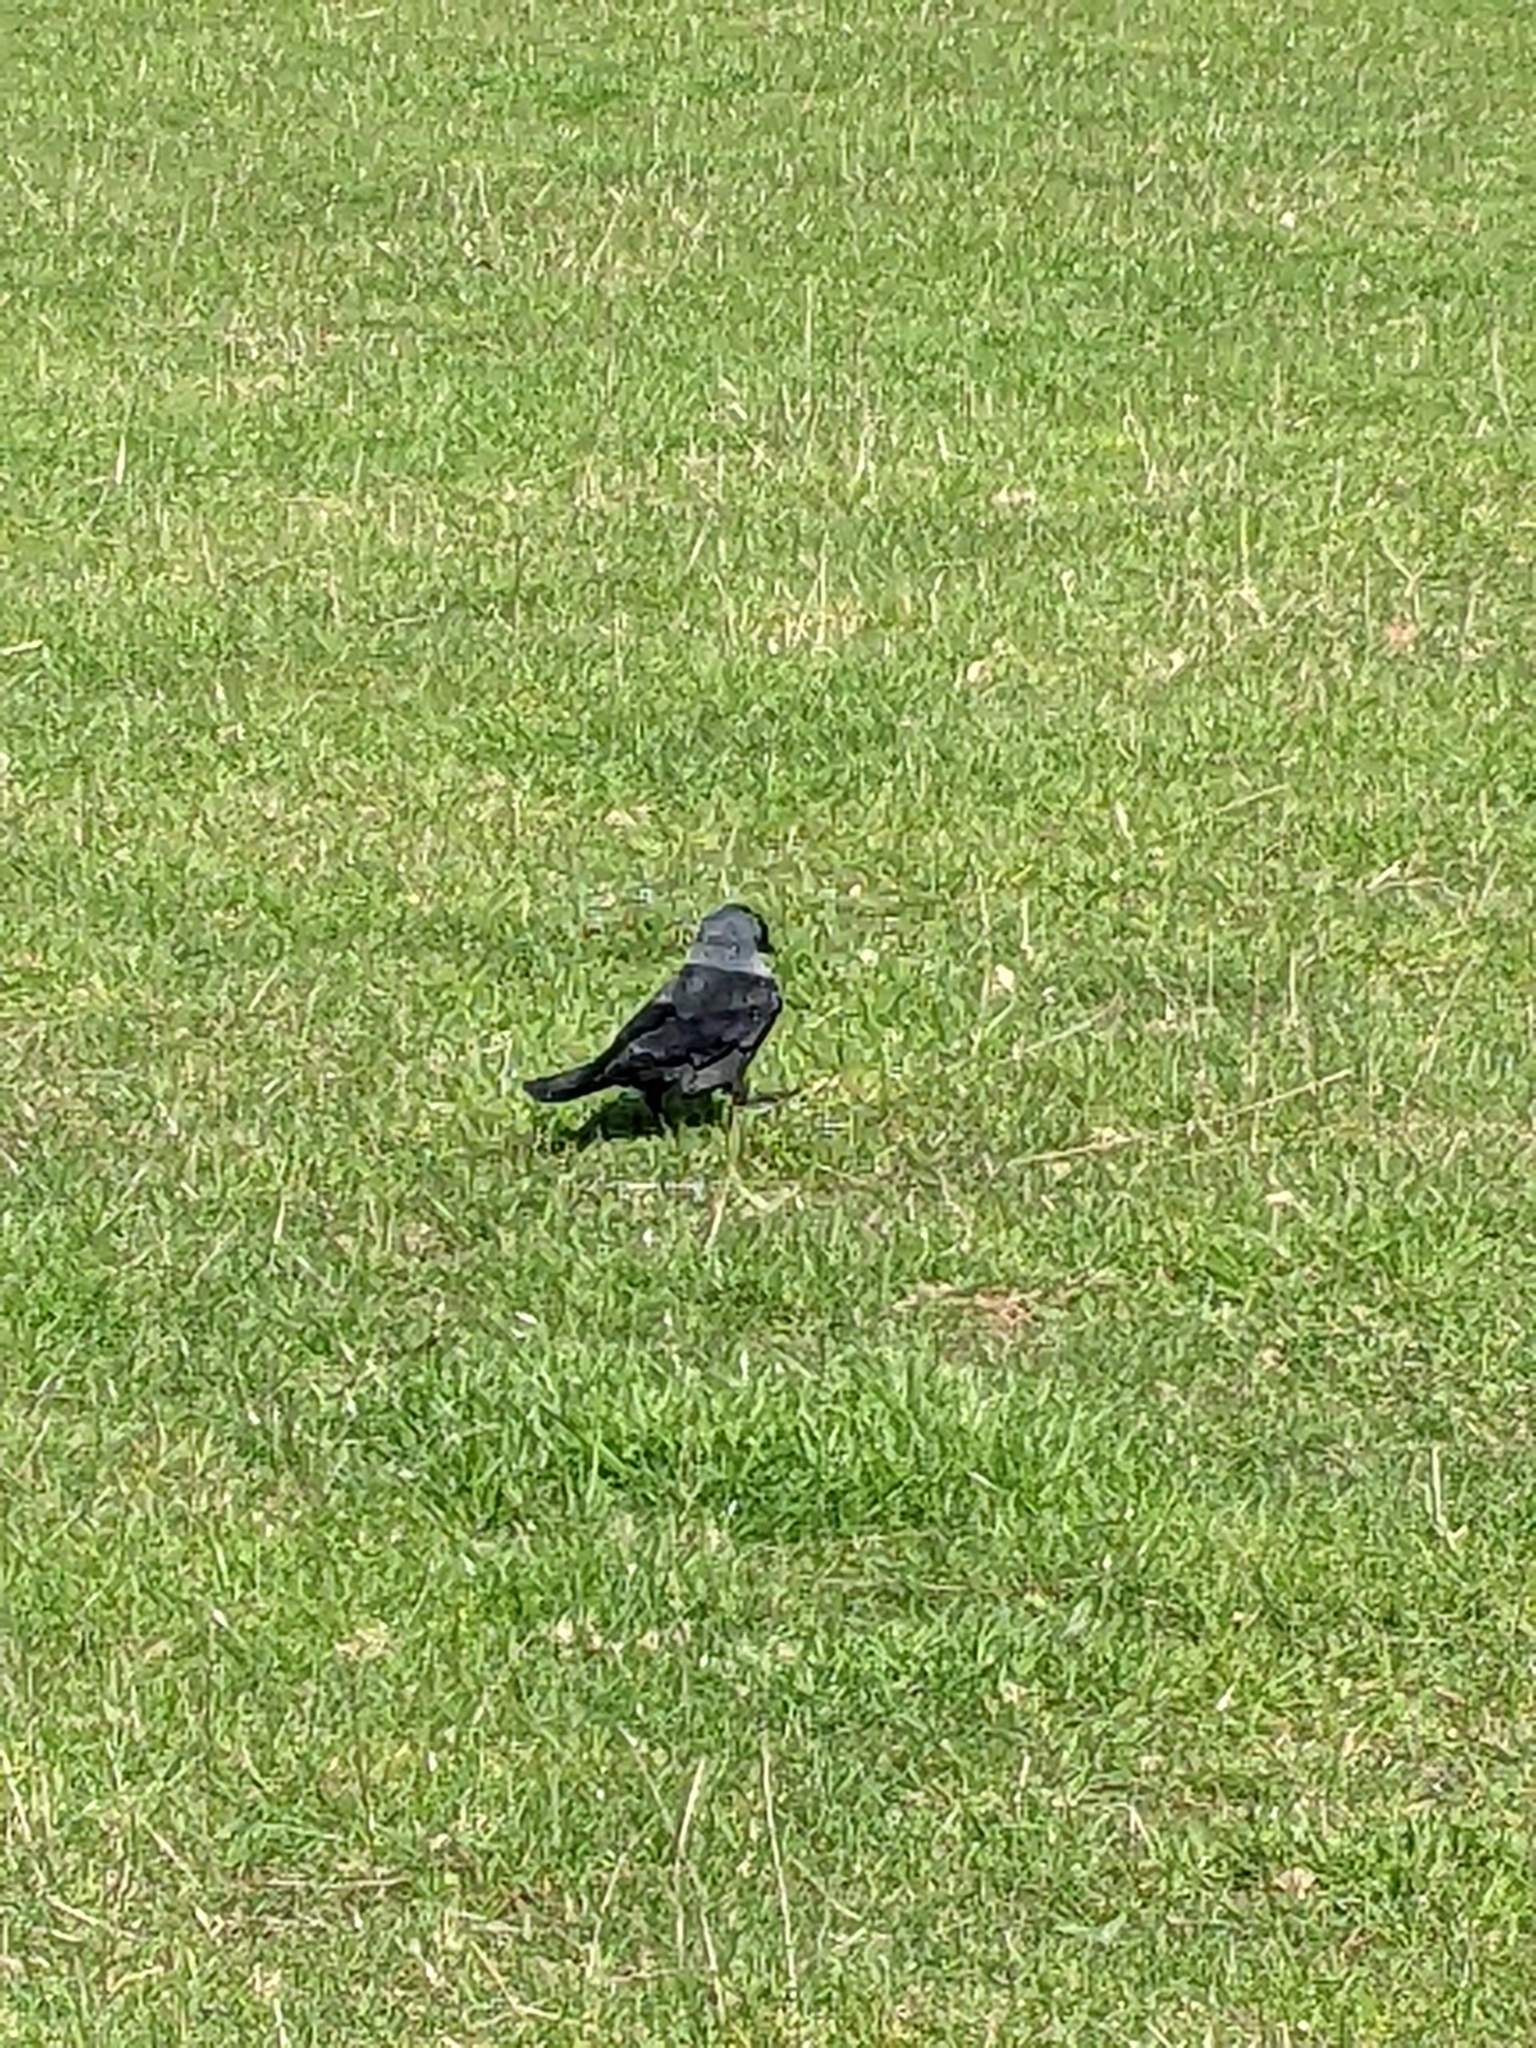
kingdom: Animalia
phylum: Chordata
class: Aves
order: Passeriformes
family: Corvidae
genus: Coloeus
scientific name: Coloeus monedula
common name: Western jackdaw
